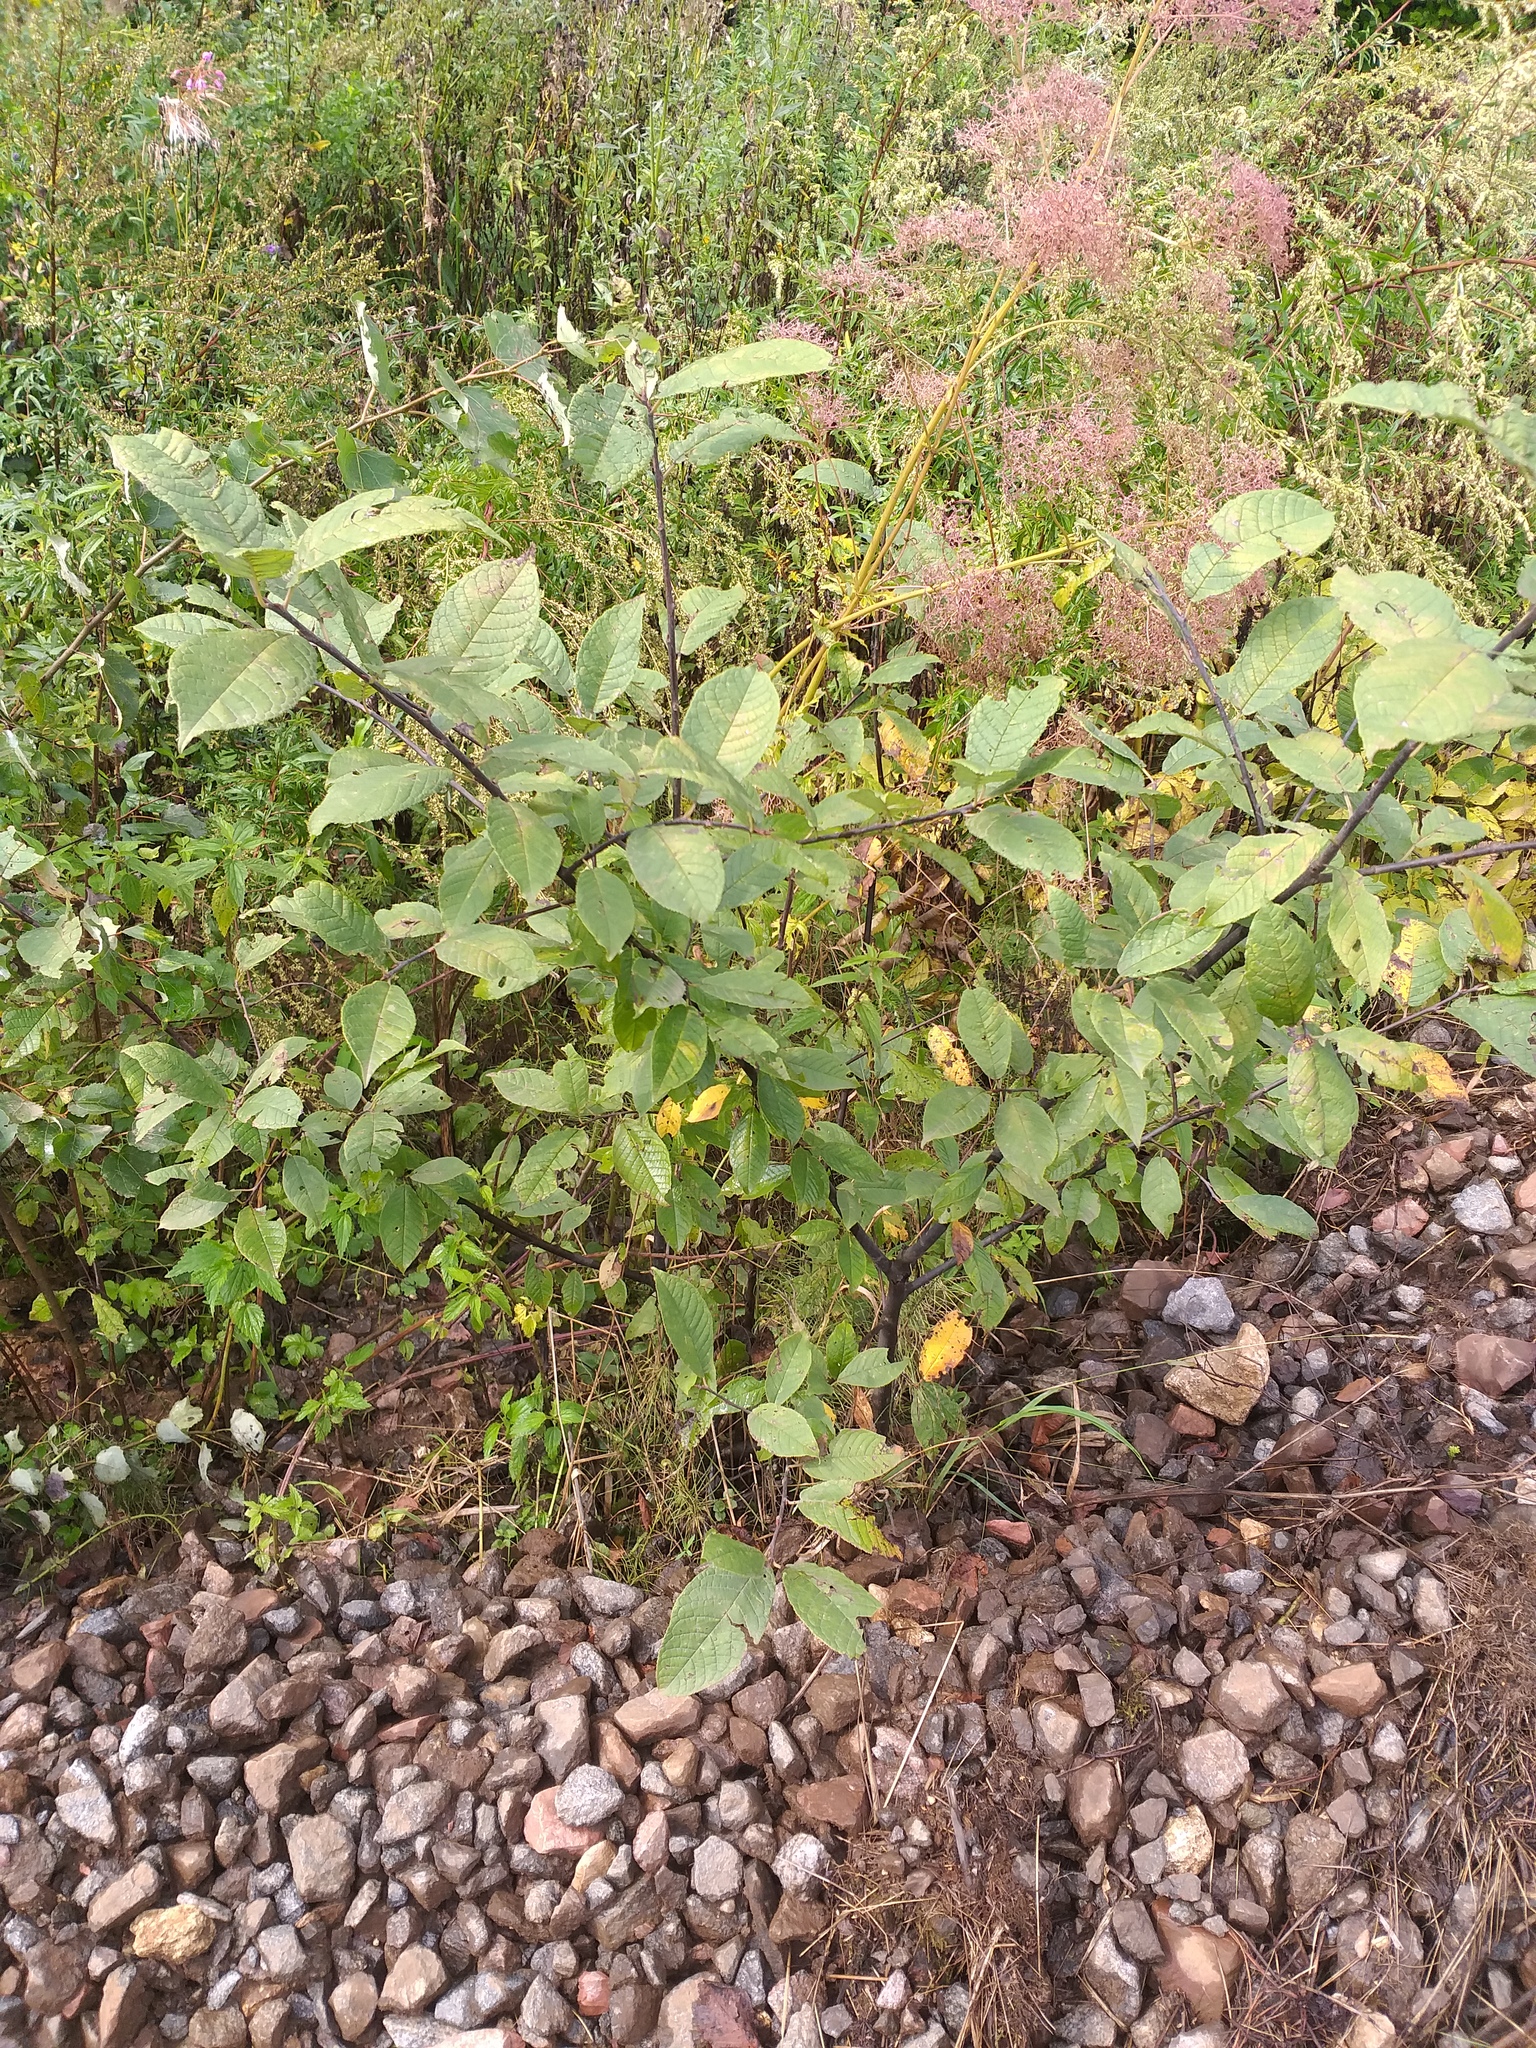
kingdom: Plantae
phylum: Tracheophyta
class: Magnoliopsida
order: Rosales
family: Rosaceae
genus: Prunus
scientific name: Prunus padus
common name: Bird cherry
